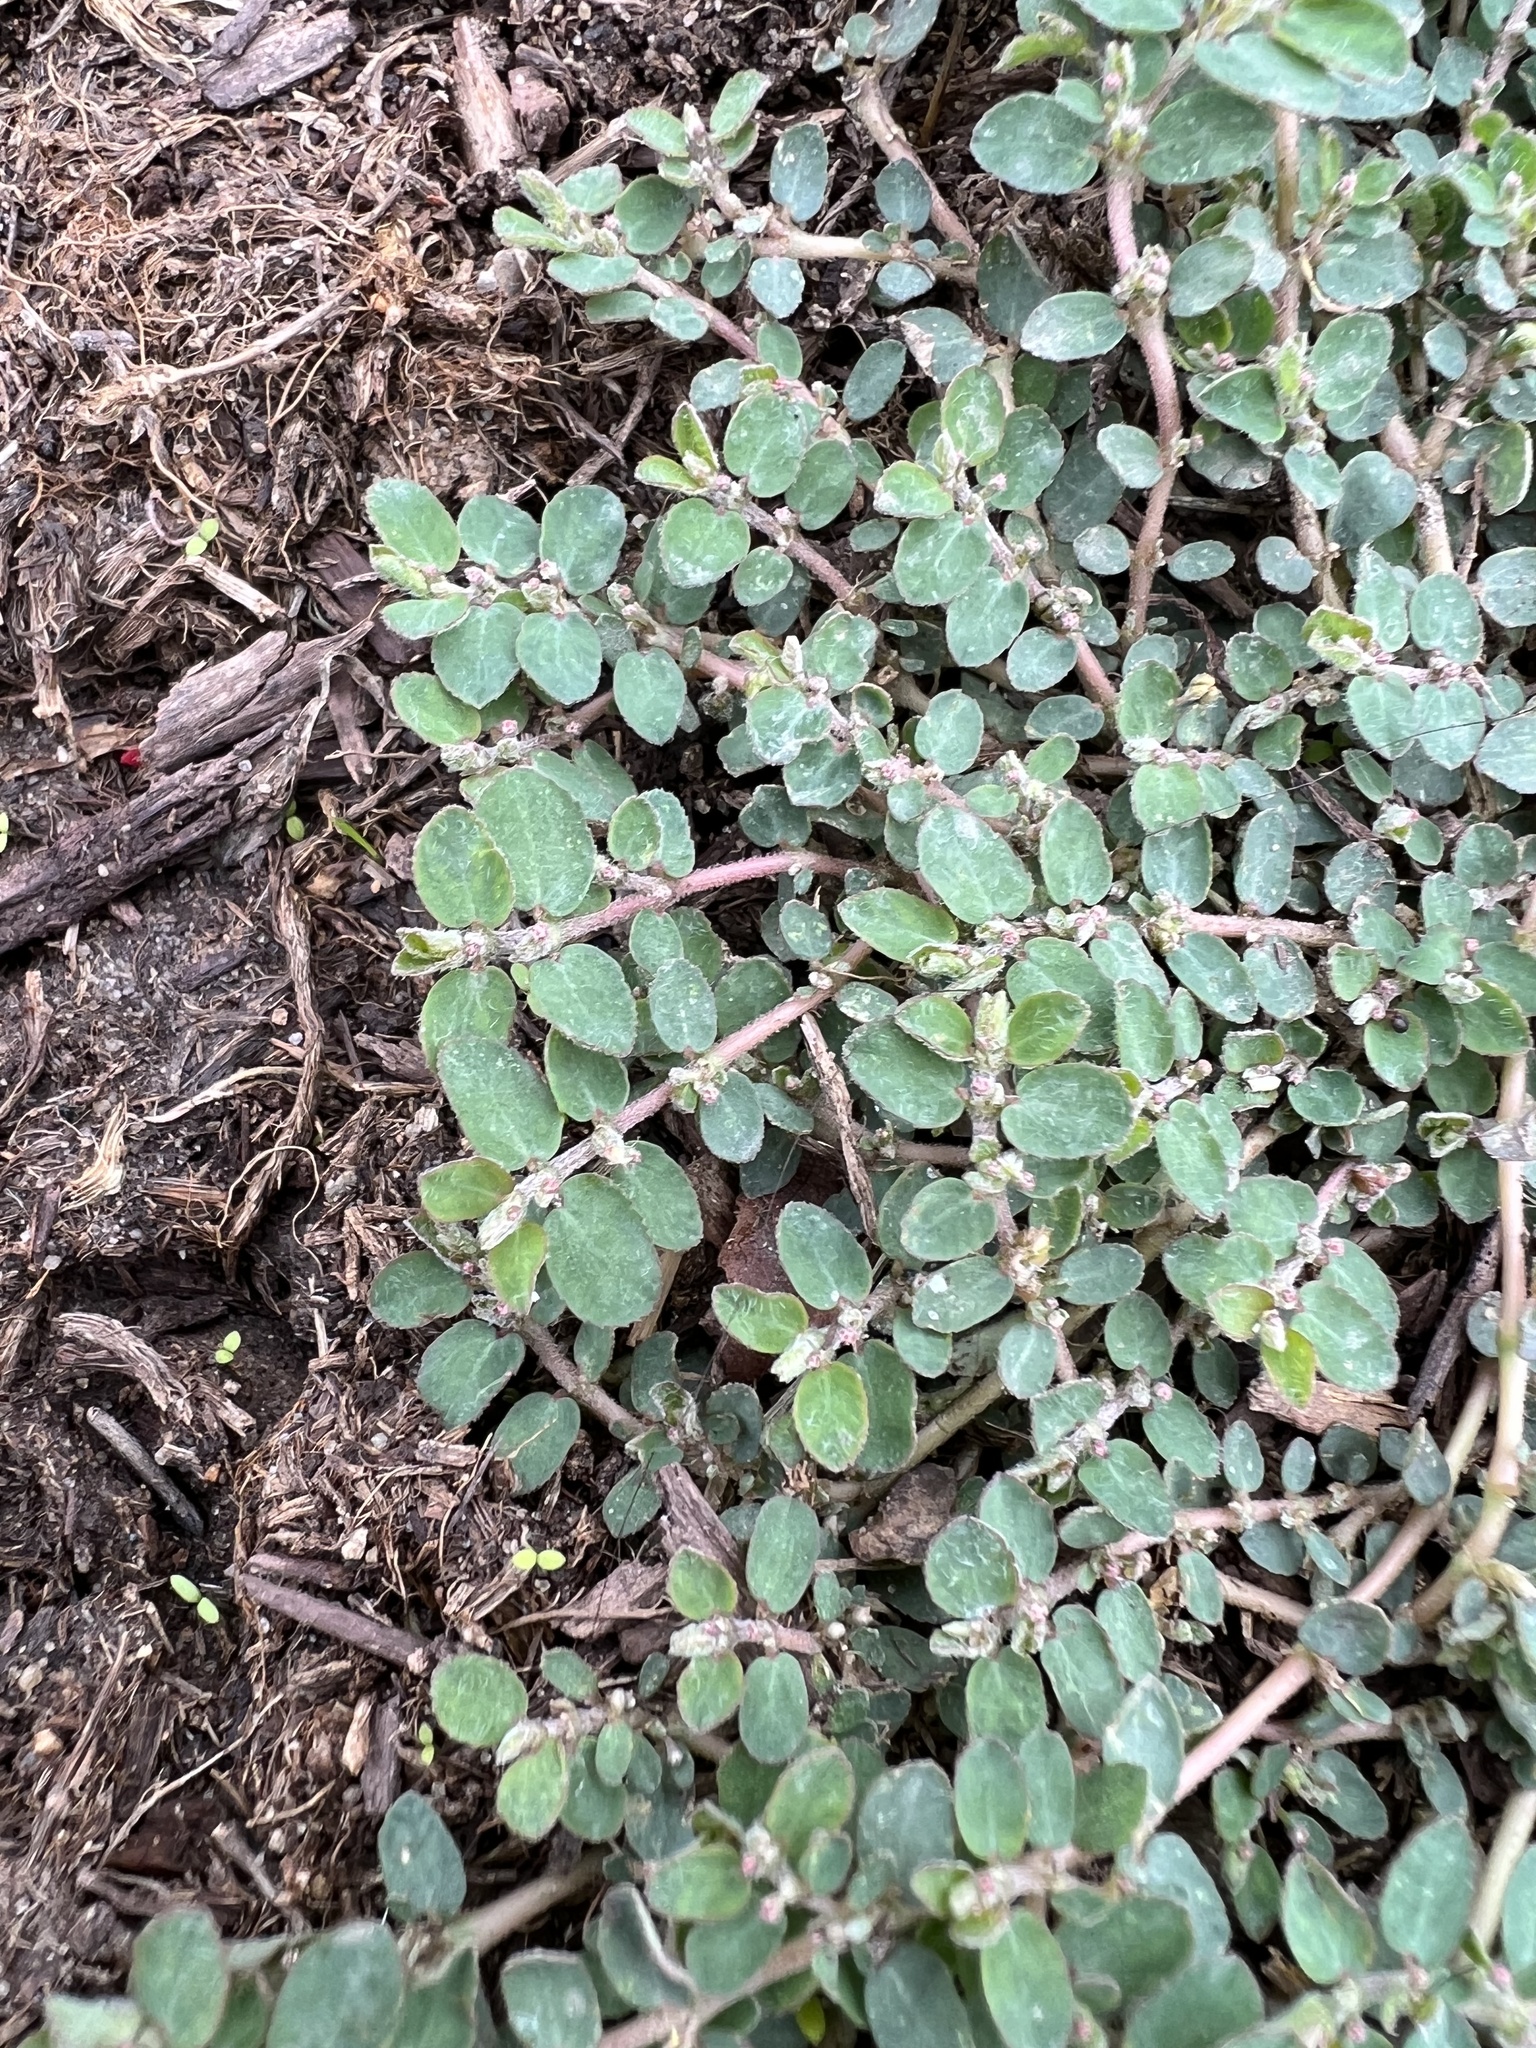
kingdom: Plantae
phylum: Tracheophyta
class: Magnoliopsida
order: Malpighiales
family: Euphorbiaceae
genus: Euphorbia
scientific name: Euphorbia prostrata
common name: Prostrate sandmat
